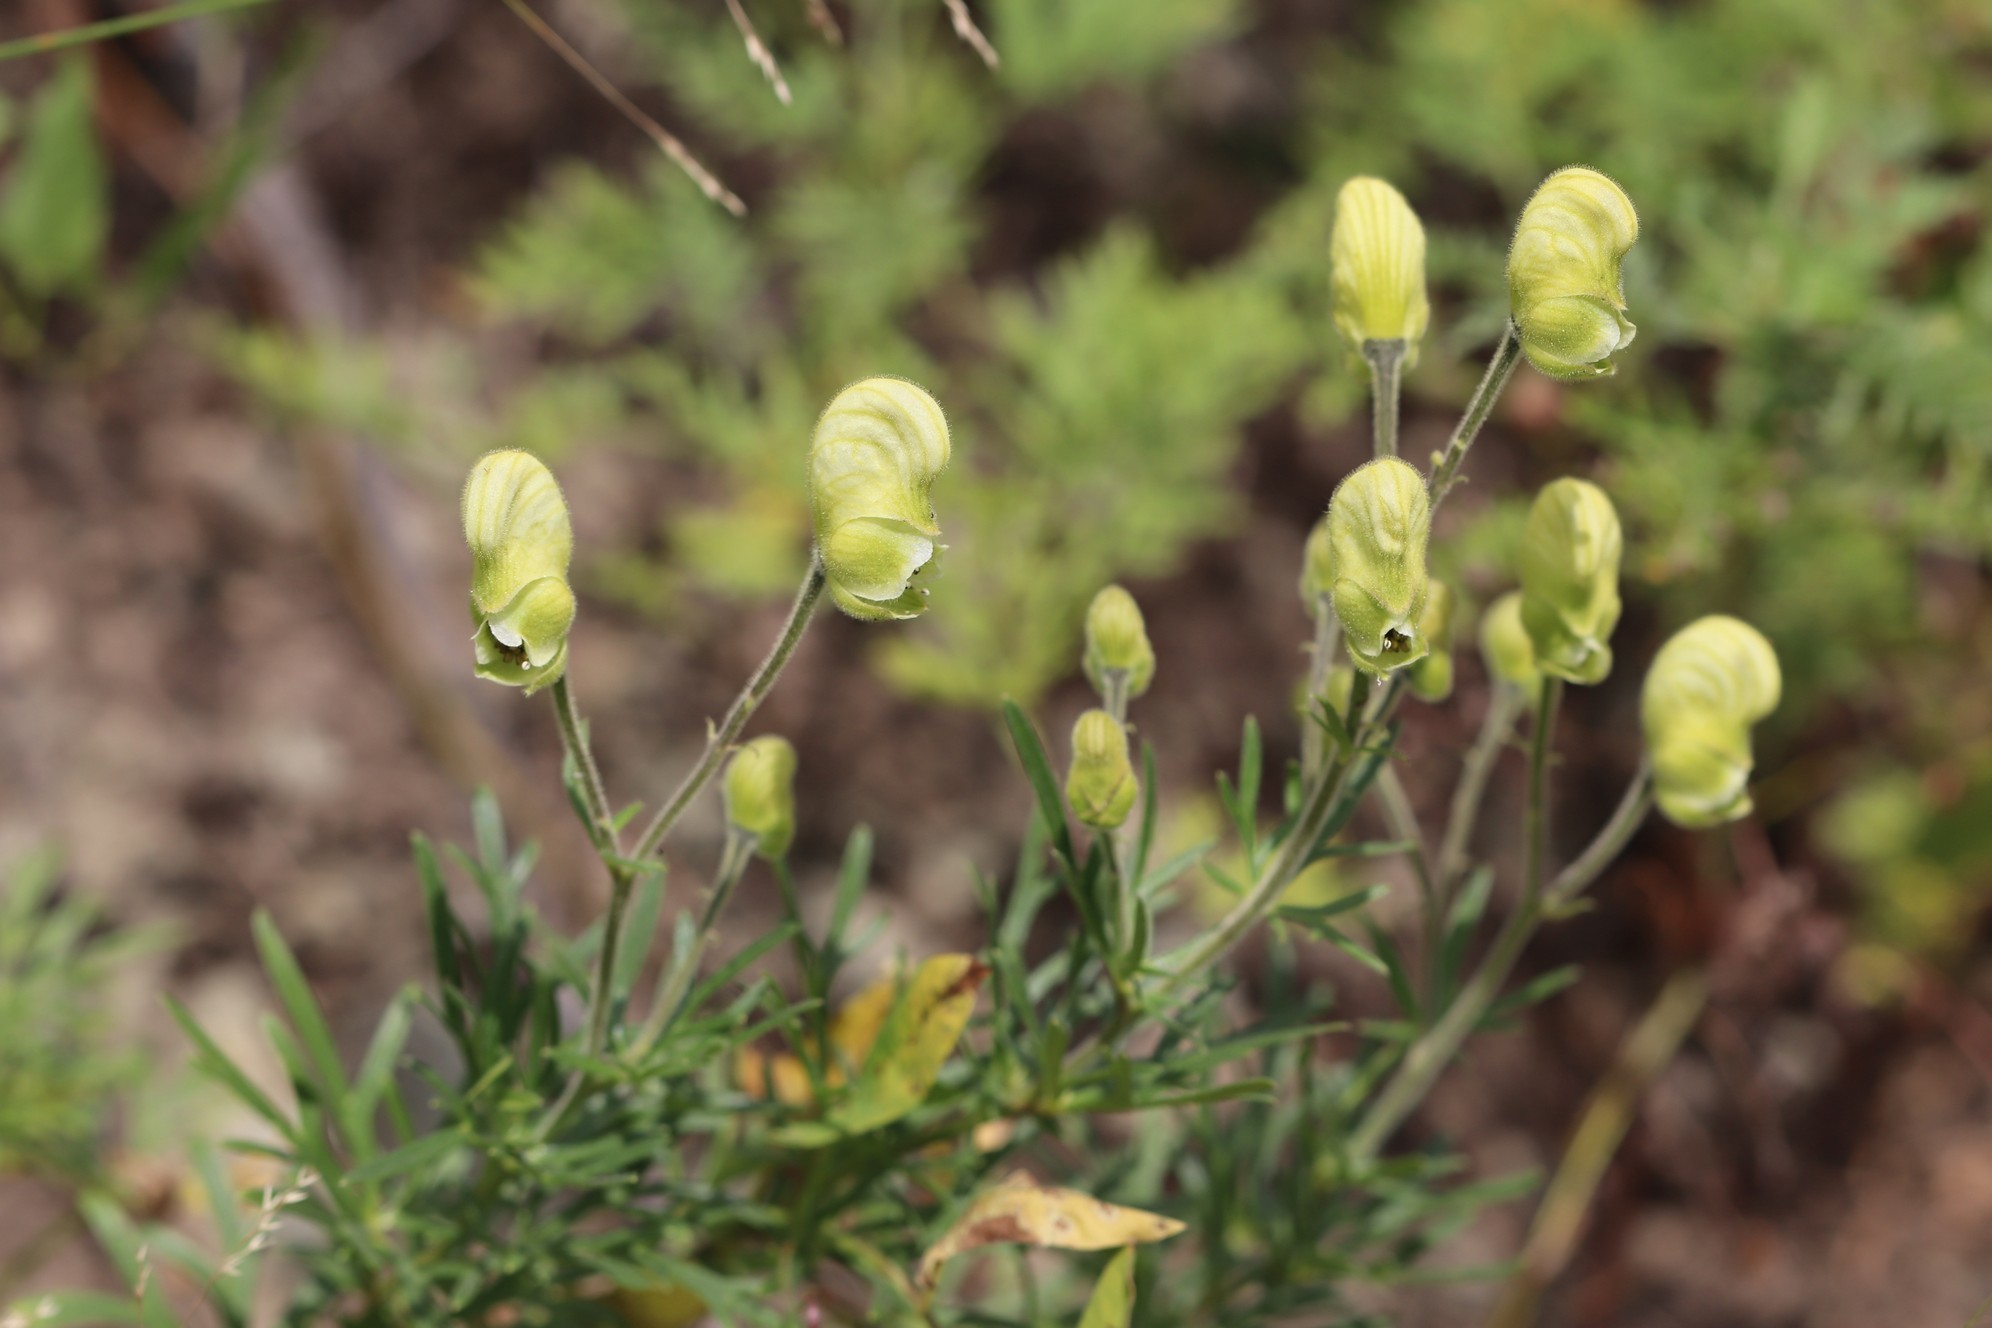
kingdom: Plantae
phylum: Tracheophyta
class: Magnoliopsida
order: Ranunculales
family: Ranunculaceae
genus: Aconitum
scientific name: Aconitum anthora
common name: Yellow monkshood
